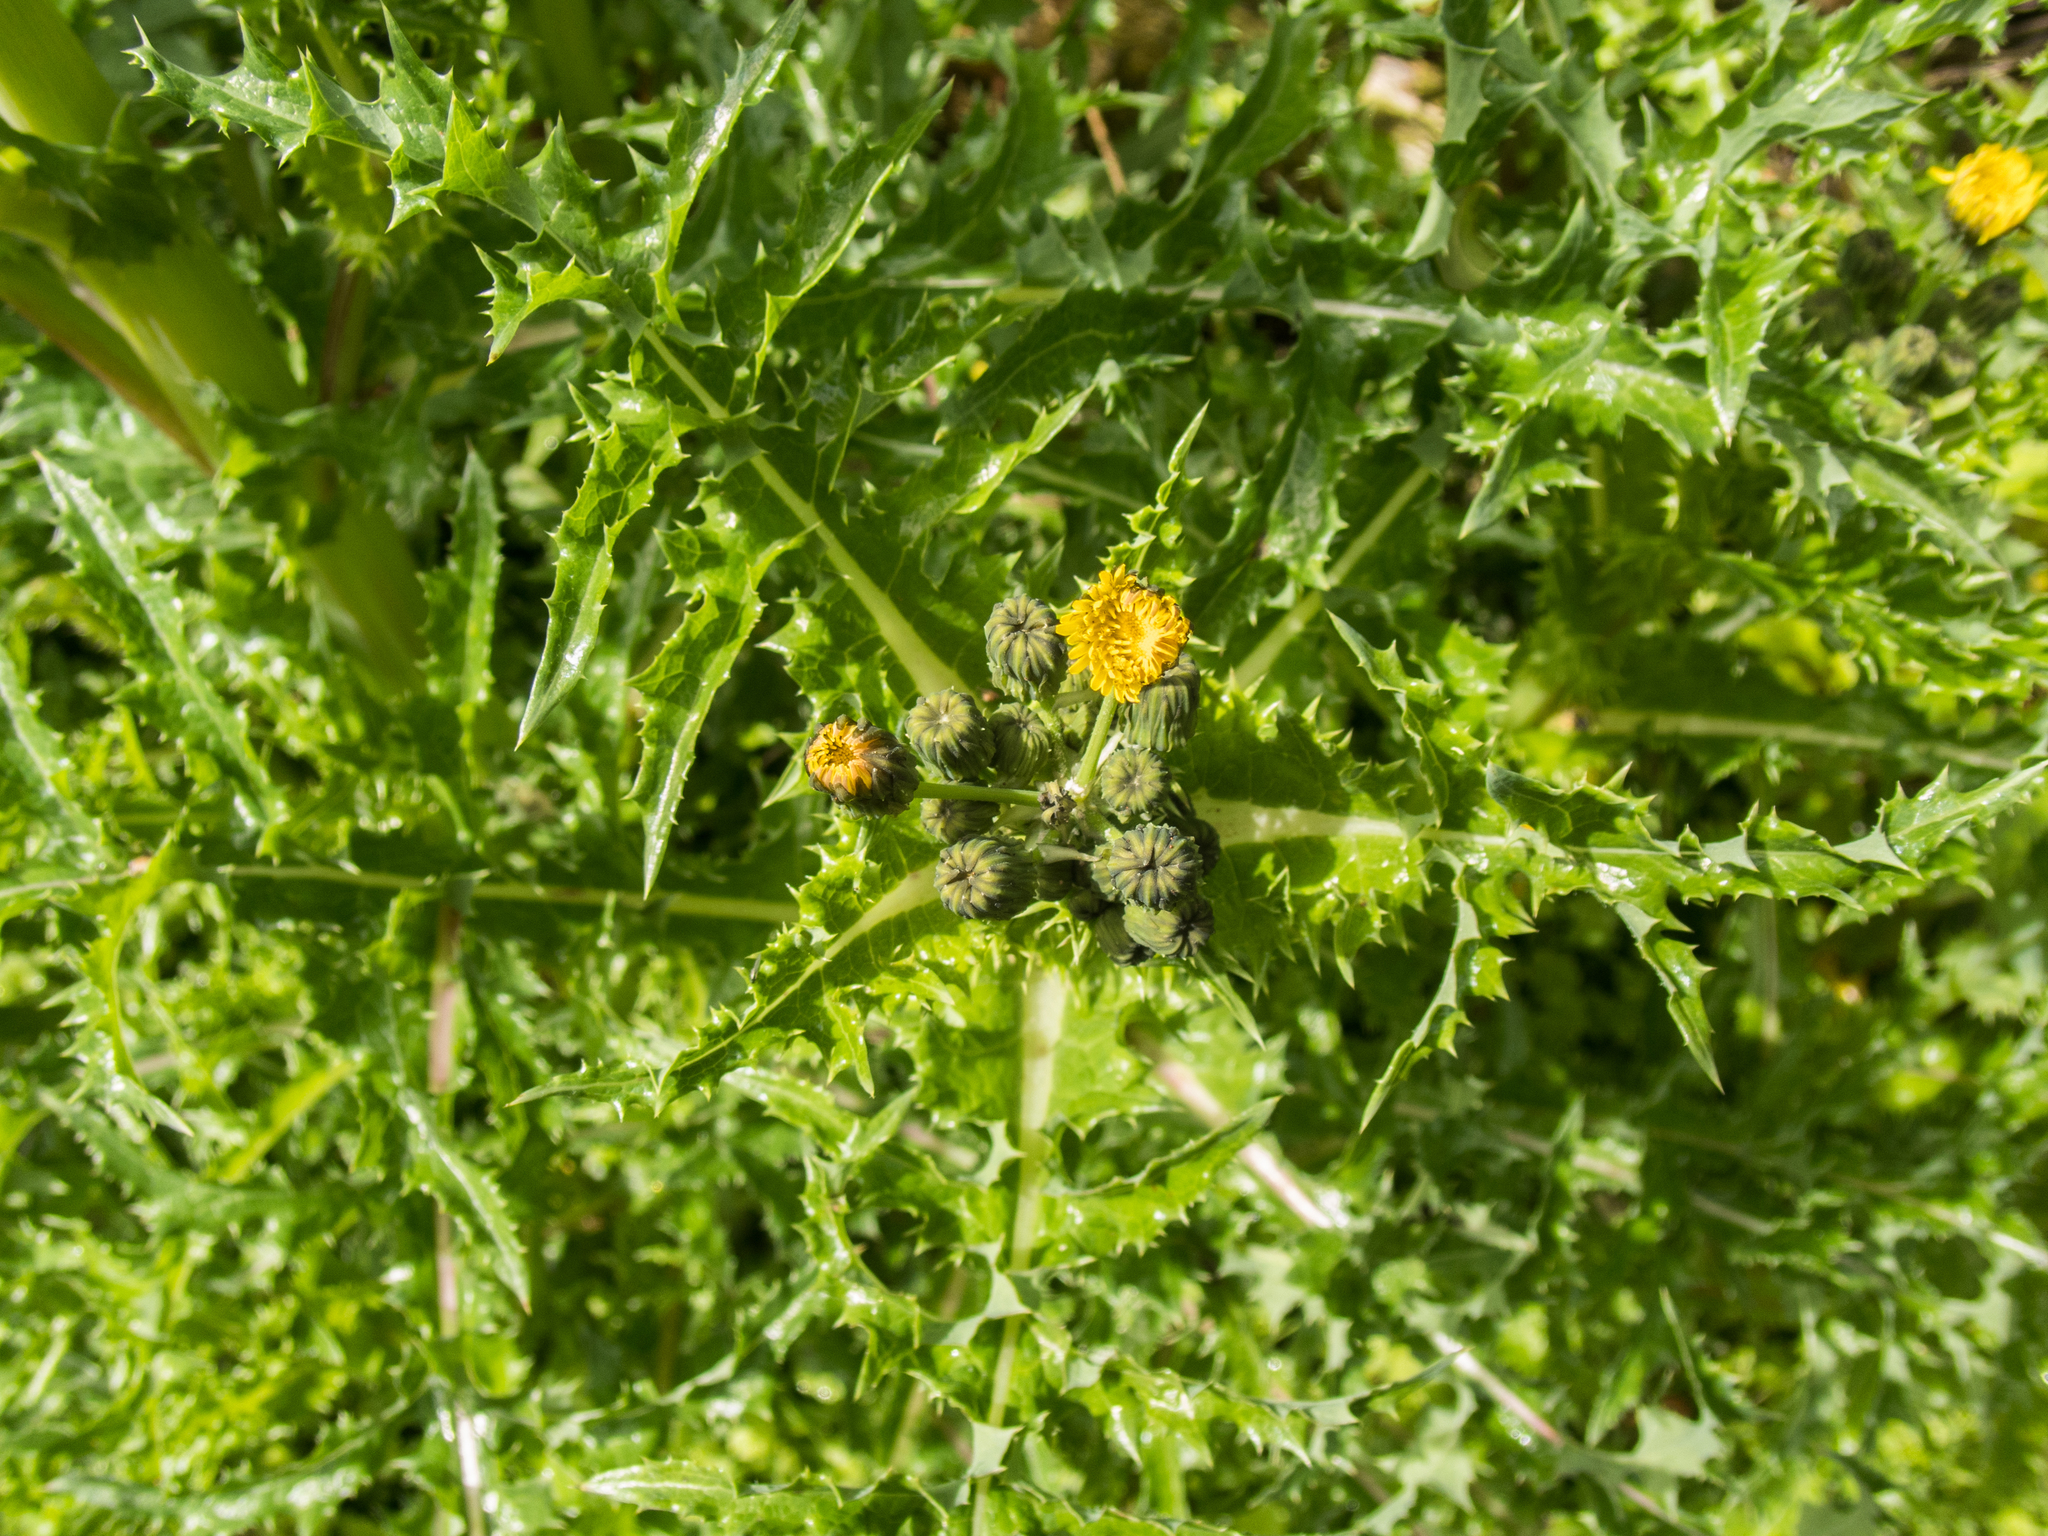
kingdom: Plantae
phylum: Tracheophyta
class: Magnoliopsida
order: Asterales
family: Asteraceae
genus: Sonchus
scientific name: Sonchus asper
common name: Prickly sow-thistle
